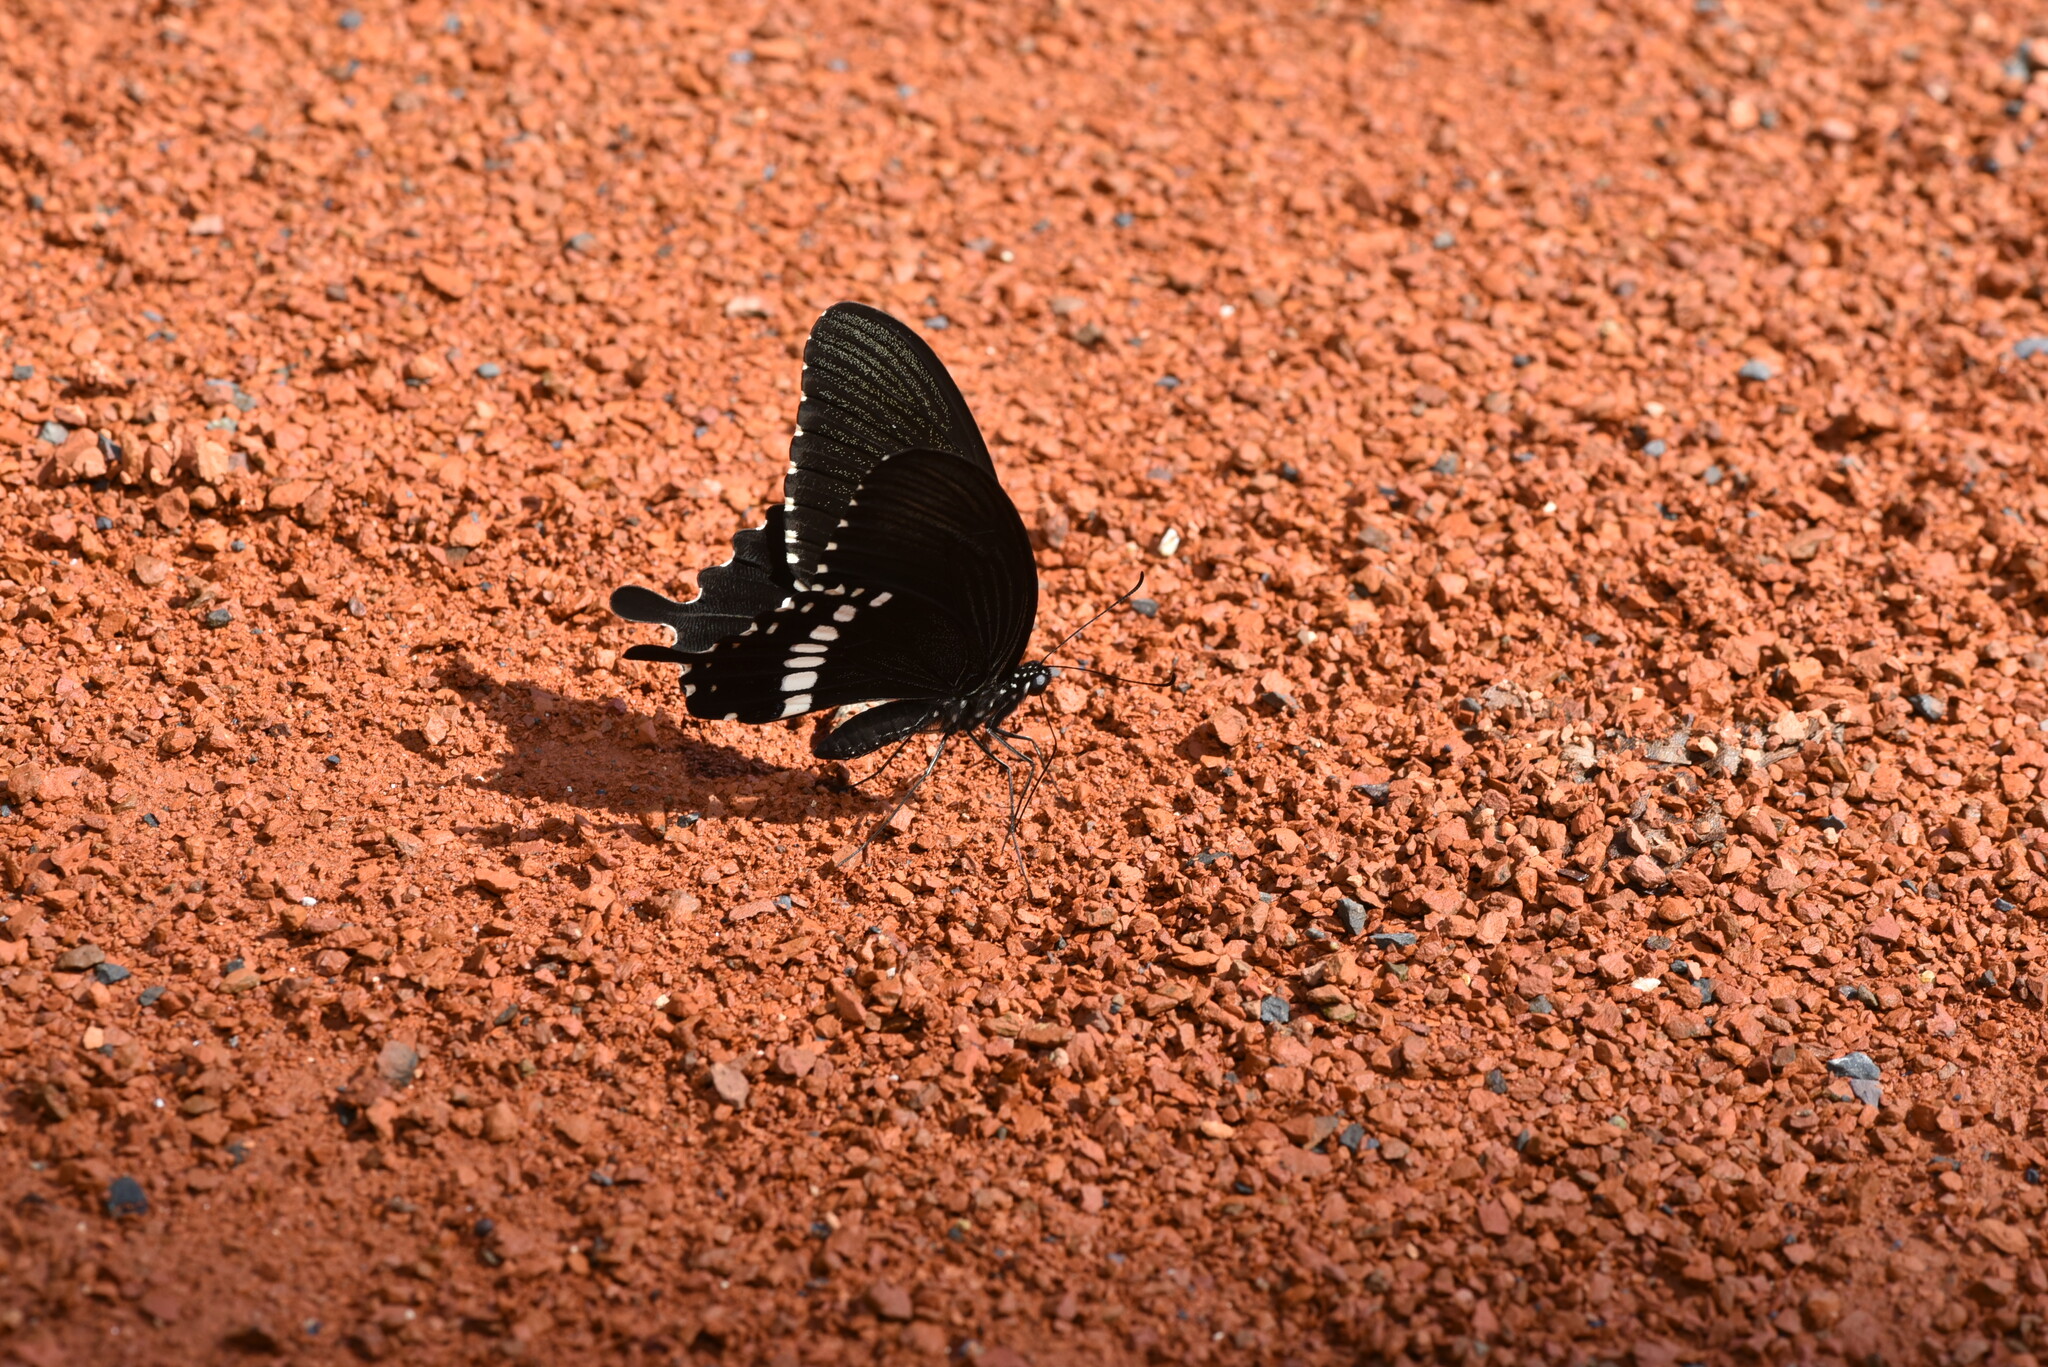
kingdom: Animalia
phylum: Arthropoda
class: Insecta
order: Lepidoptera
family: Papilionidae
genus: Papilio
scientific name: Papilio polytes
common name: Common mormon
